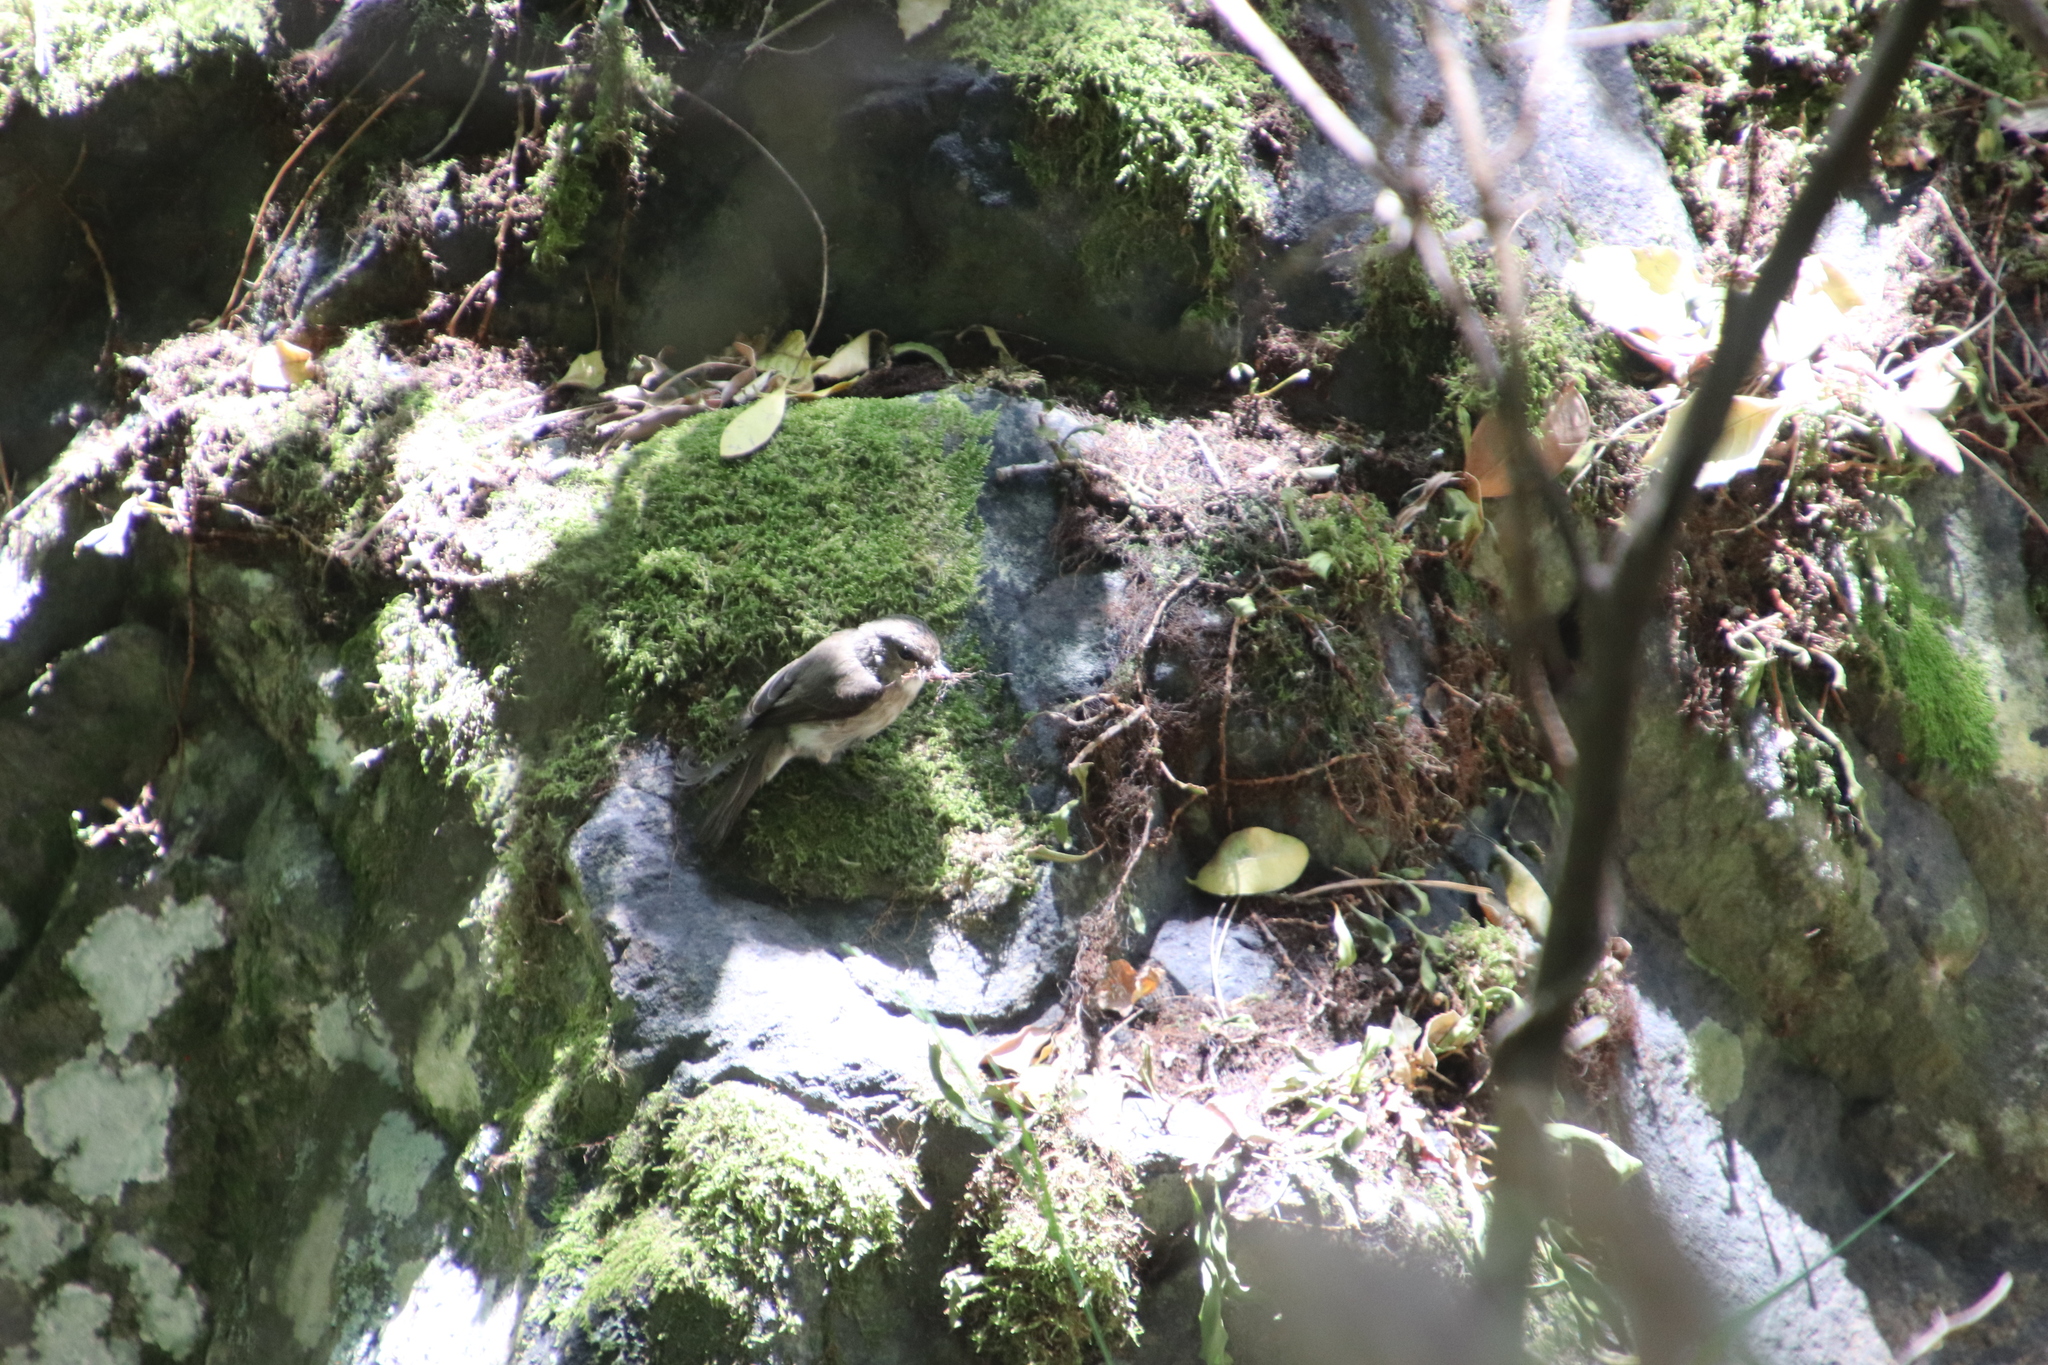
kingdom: Animalia
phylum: Chordata
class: Aves
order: Passeriformes
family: Muscicapidae
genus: Muscicapa
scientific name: Muscicapa adusta
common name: African dusky flycatcher
